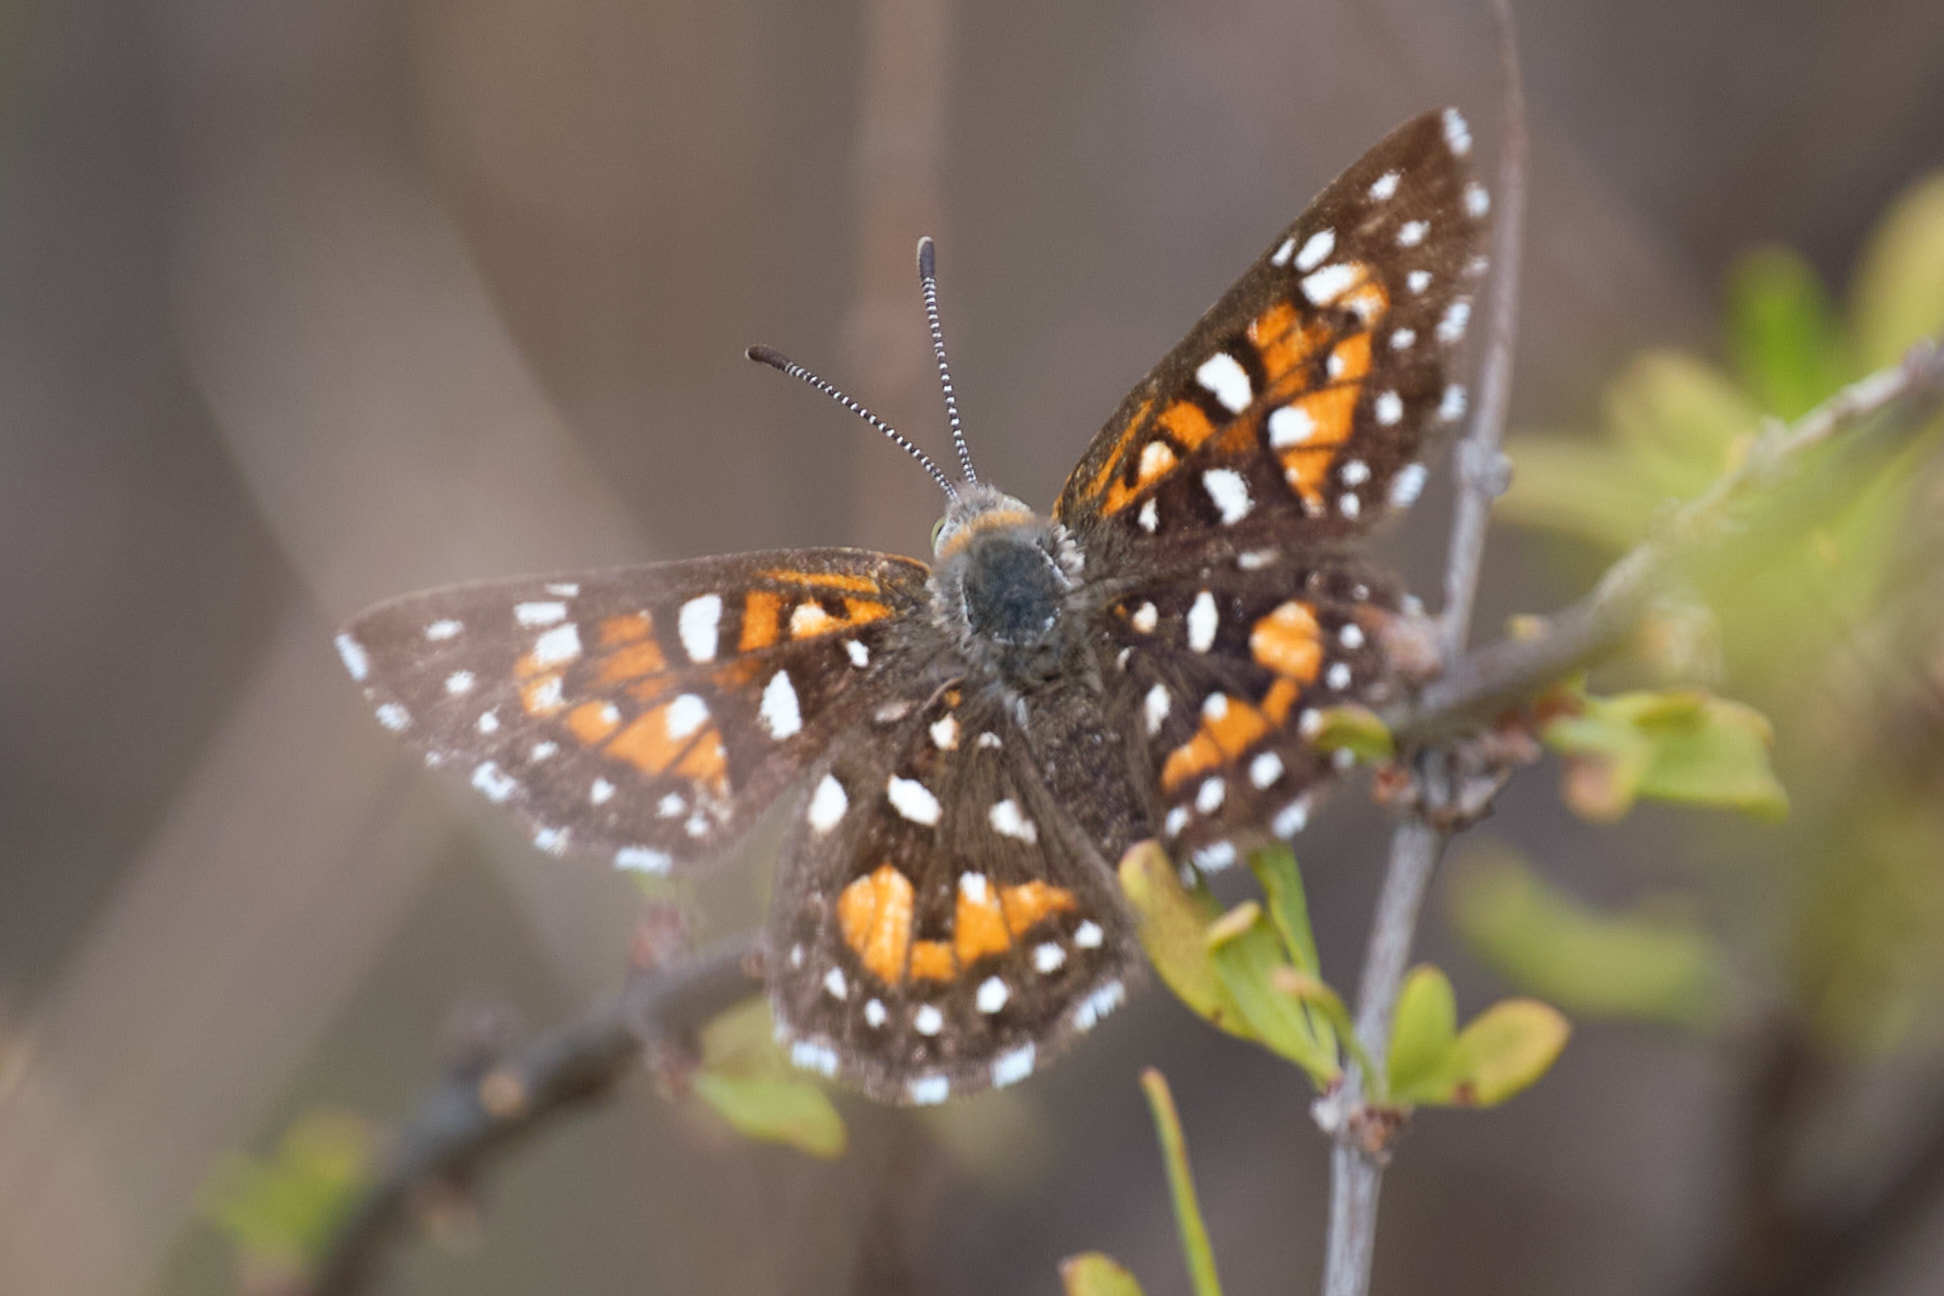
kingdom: Animalia
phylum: Arthropoda
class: Insecta
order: Lepidoptera
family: Riodinidae
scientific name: Riodinidae
